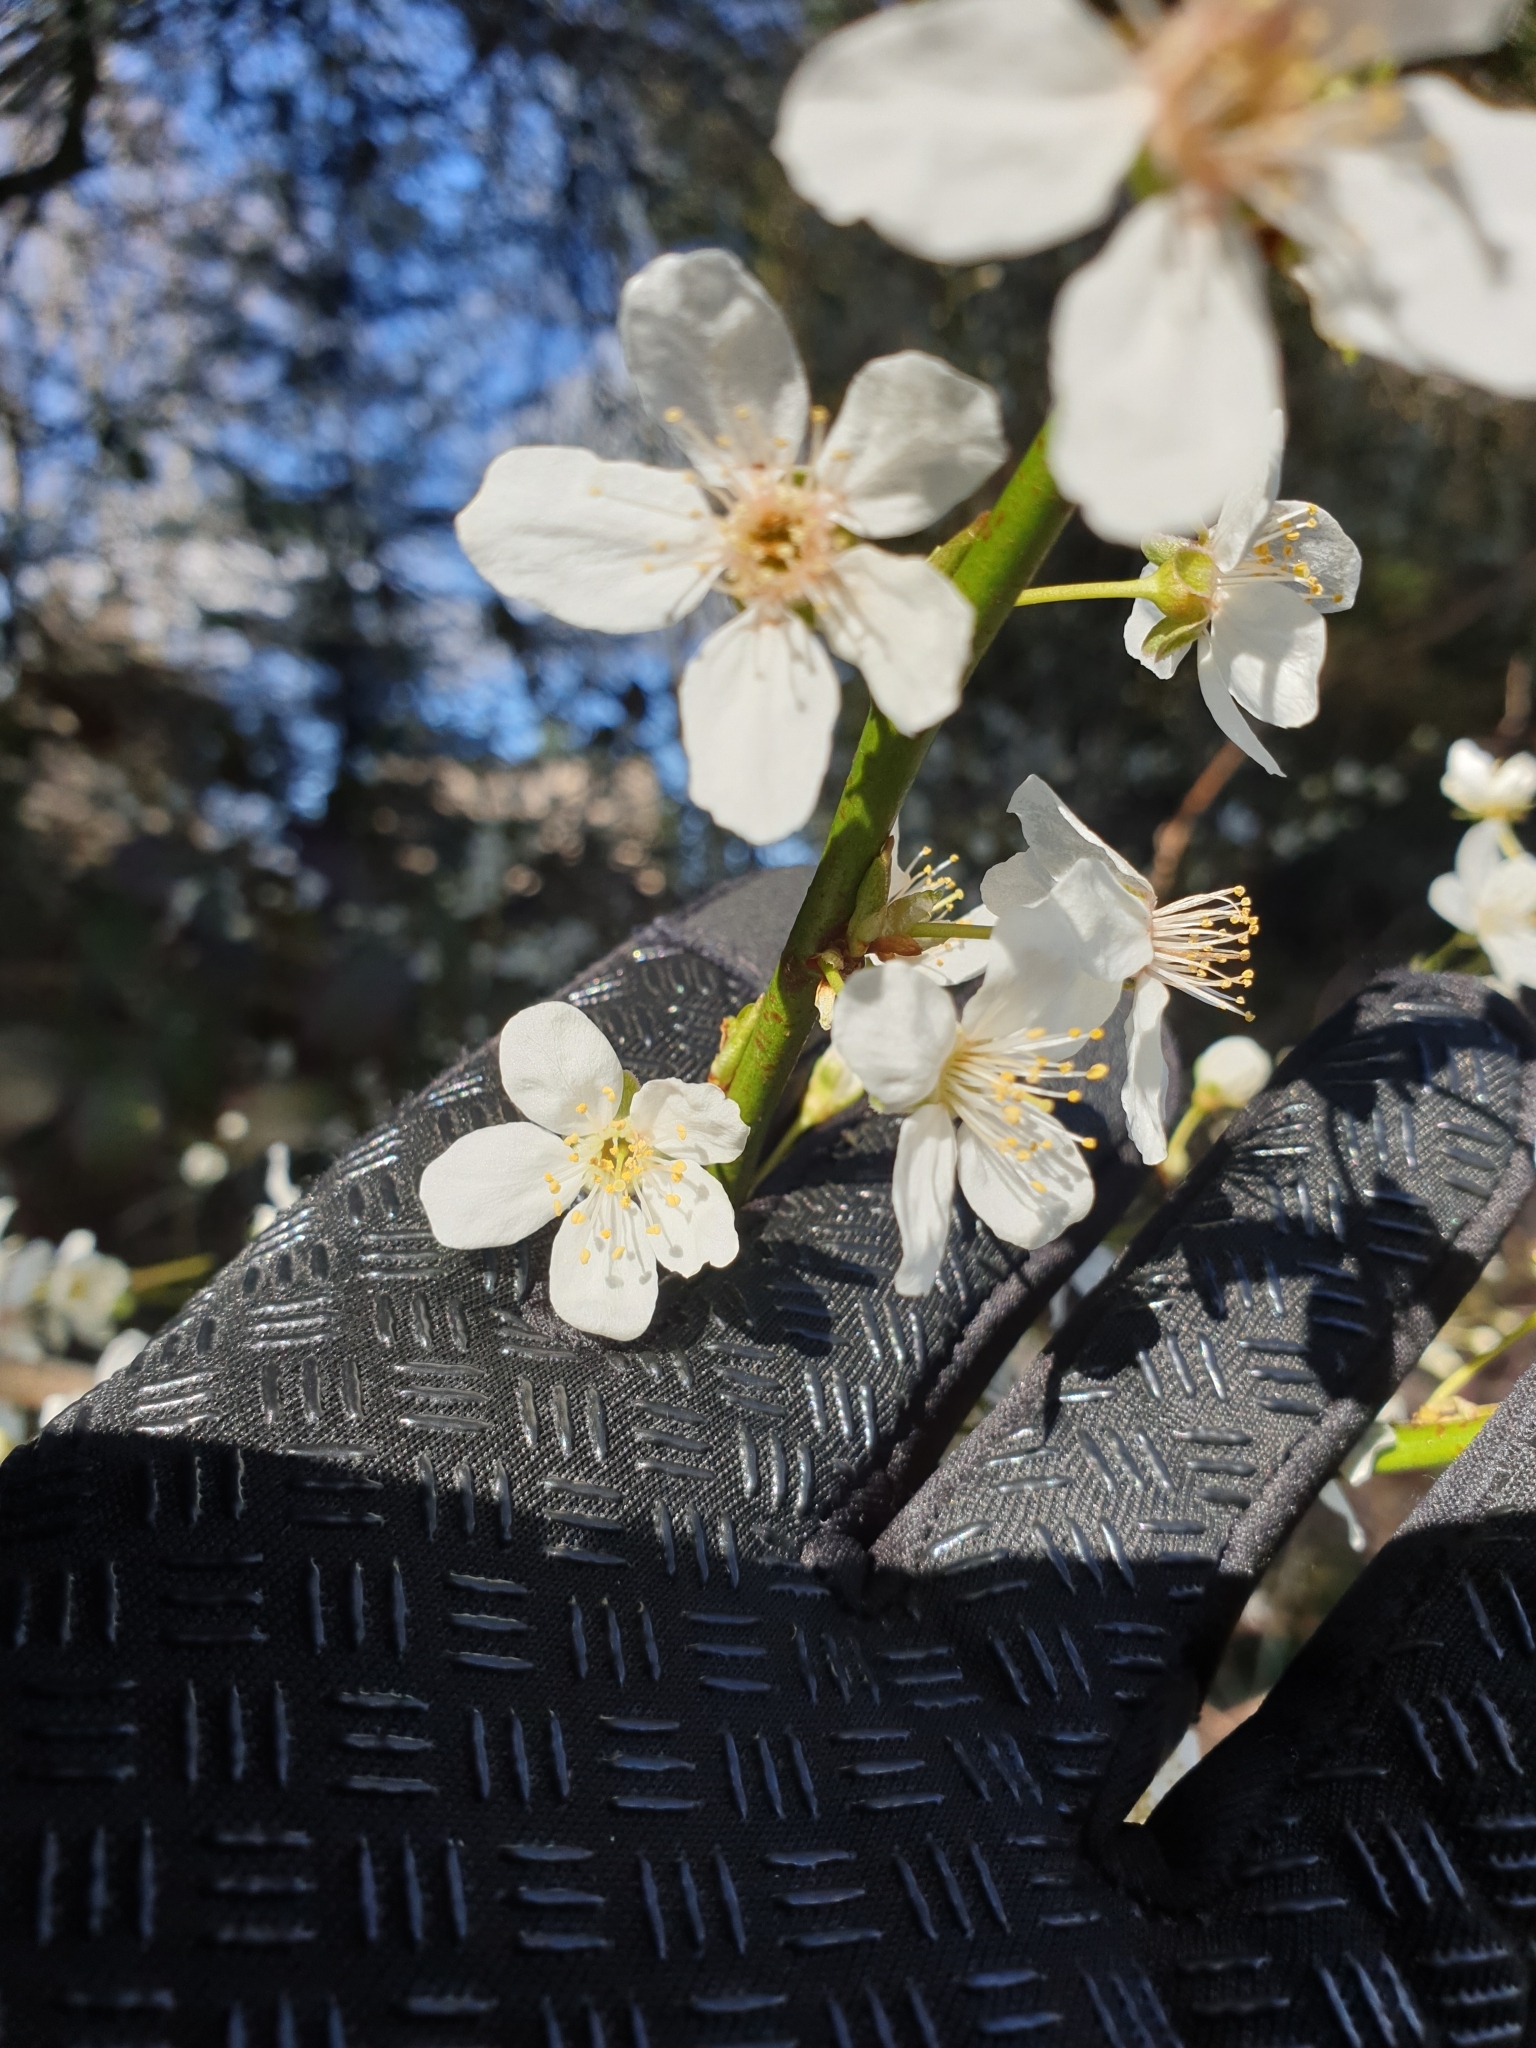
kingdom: Plantae
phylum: Tracheophyta
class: Magnoliopsida
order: Rosales
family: Rosaceae
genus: Prunus
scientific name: Prunus cerasifera
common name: Cherry plum
